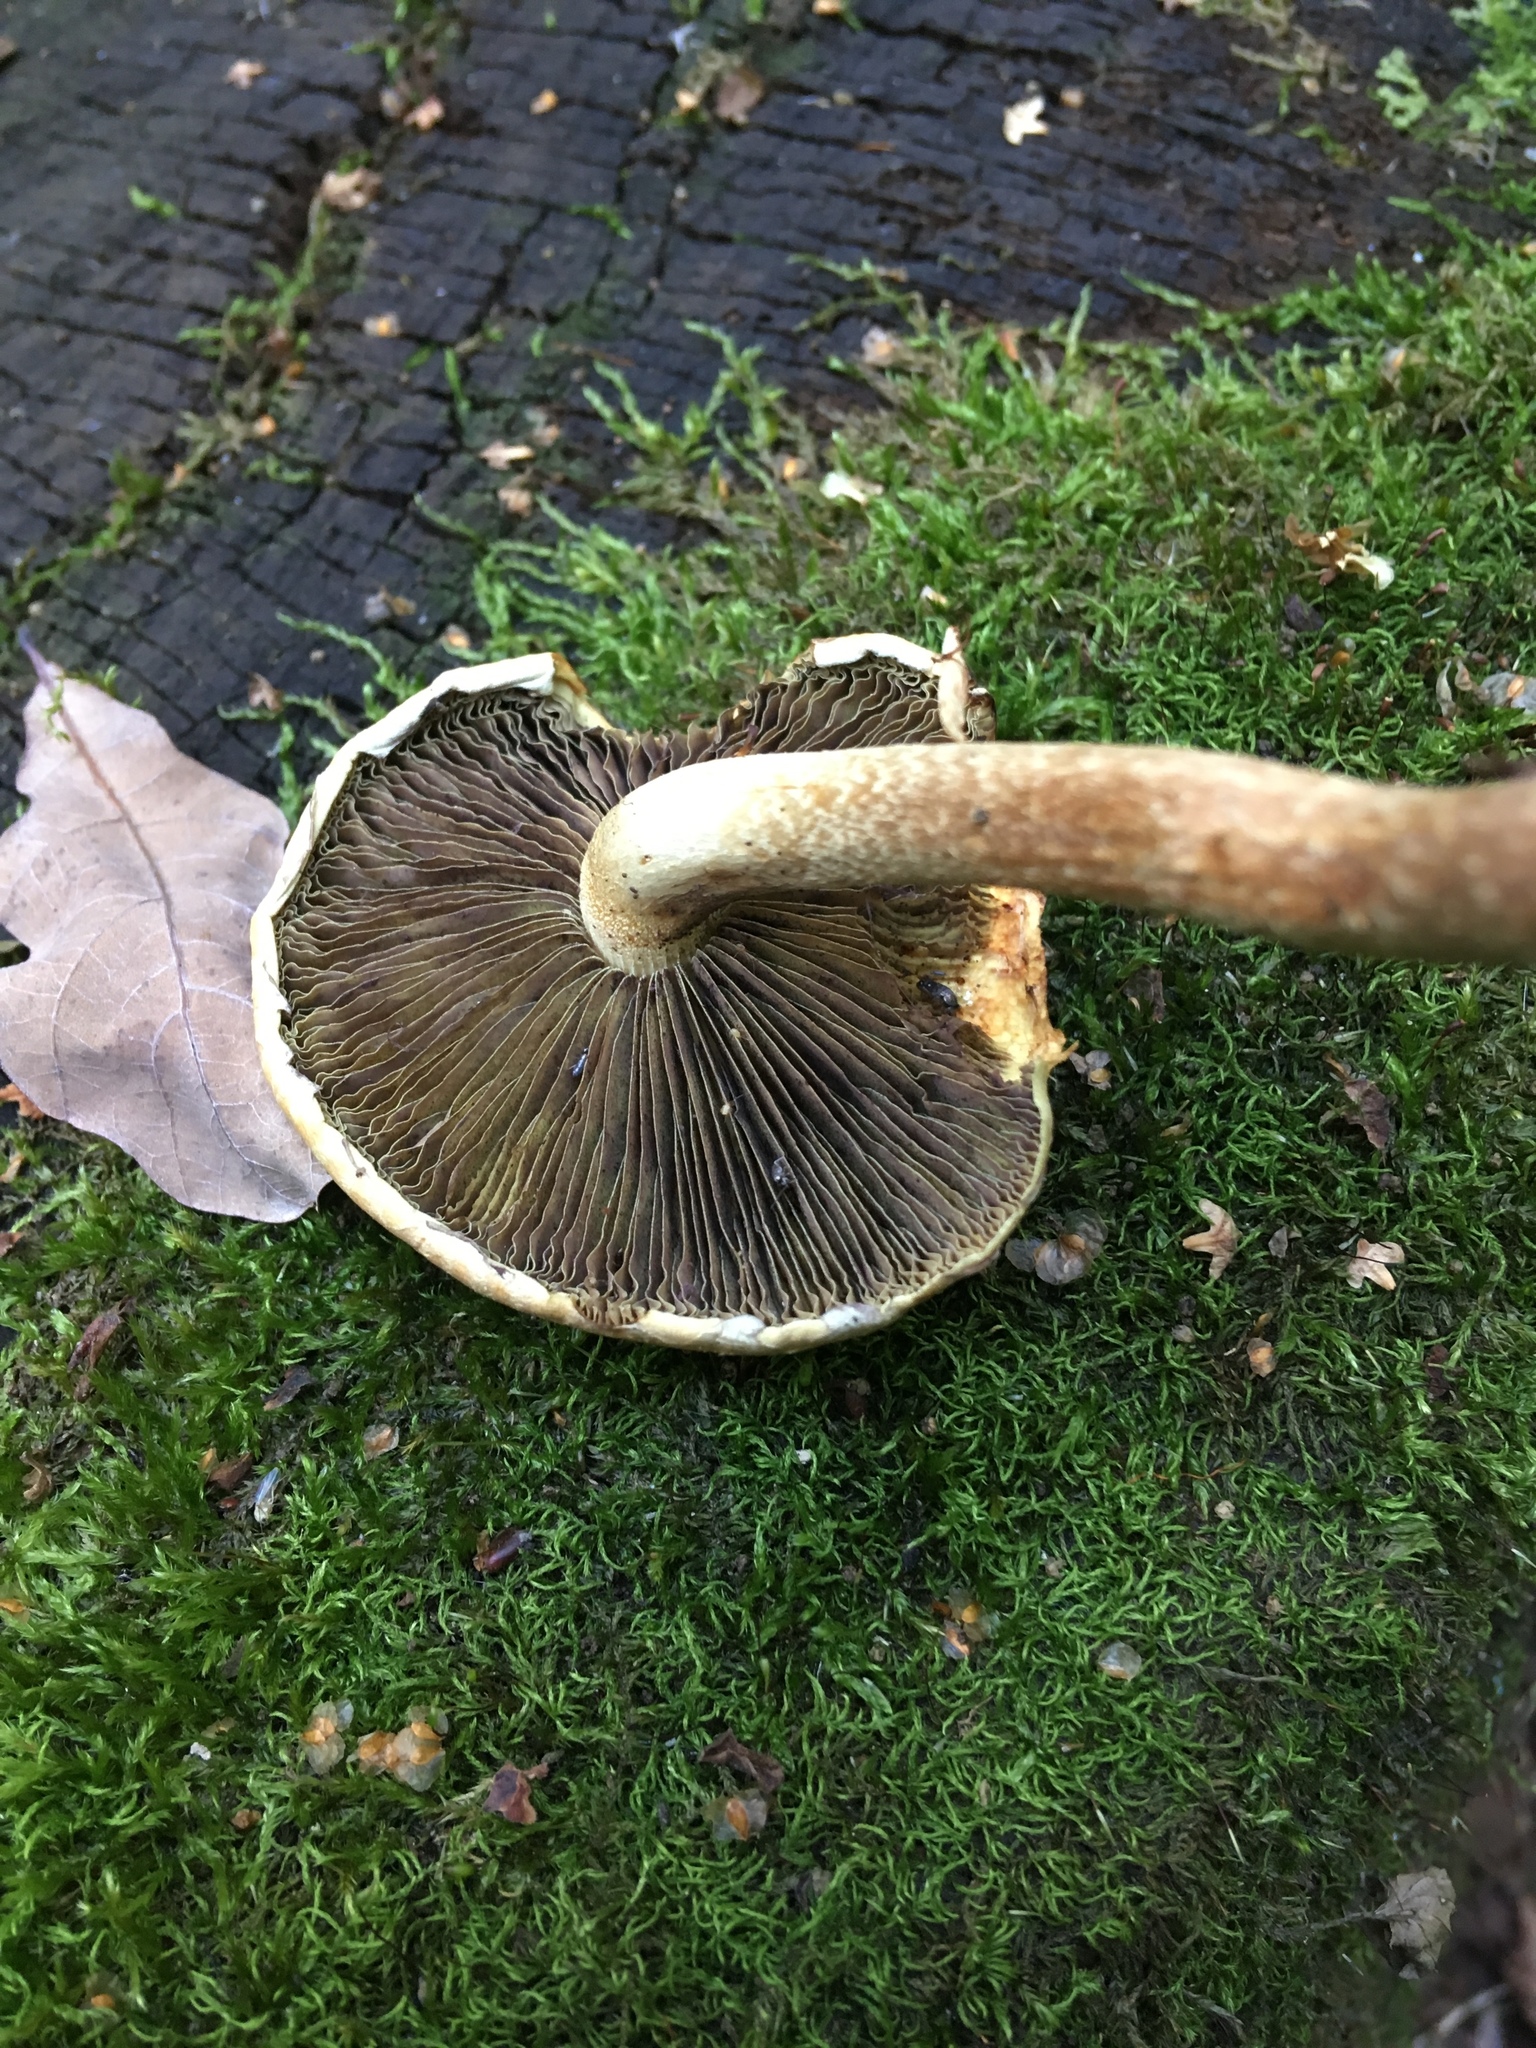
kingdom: Fungi
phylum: Basidiomycota
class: Agaricomycetes
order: Agaricales
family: Strophariaceae
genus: Hypholoma
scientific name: Hypholoma lateritium
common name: Brick caps
